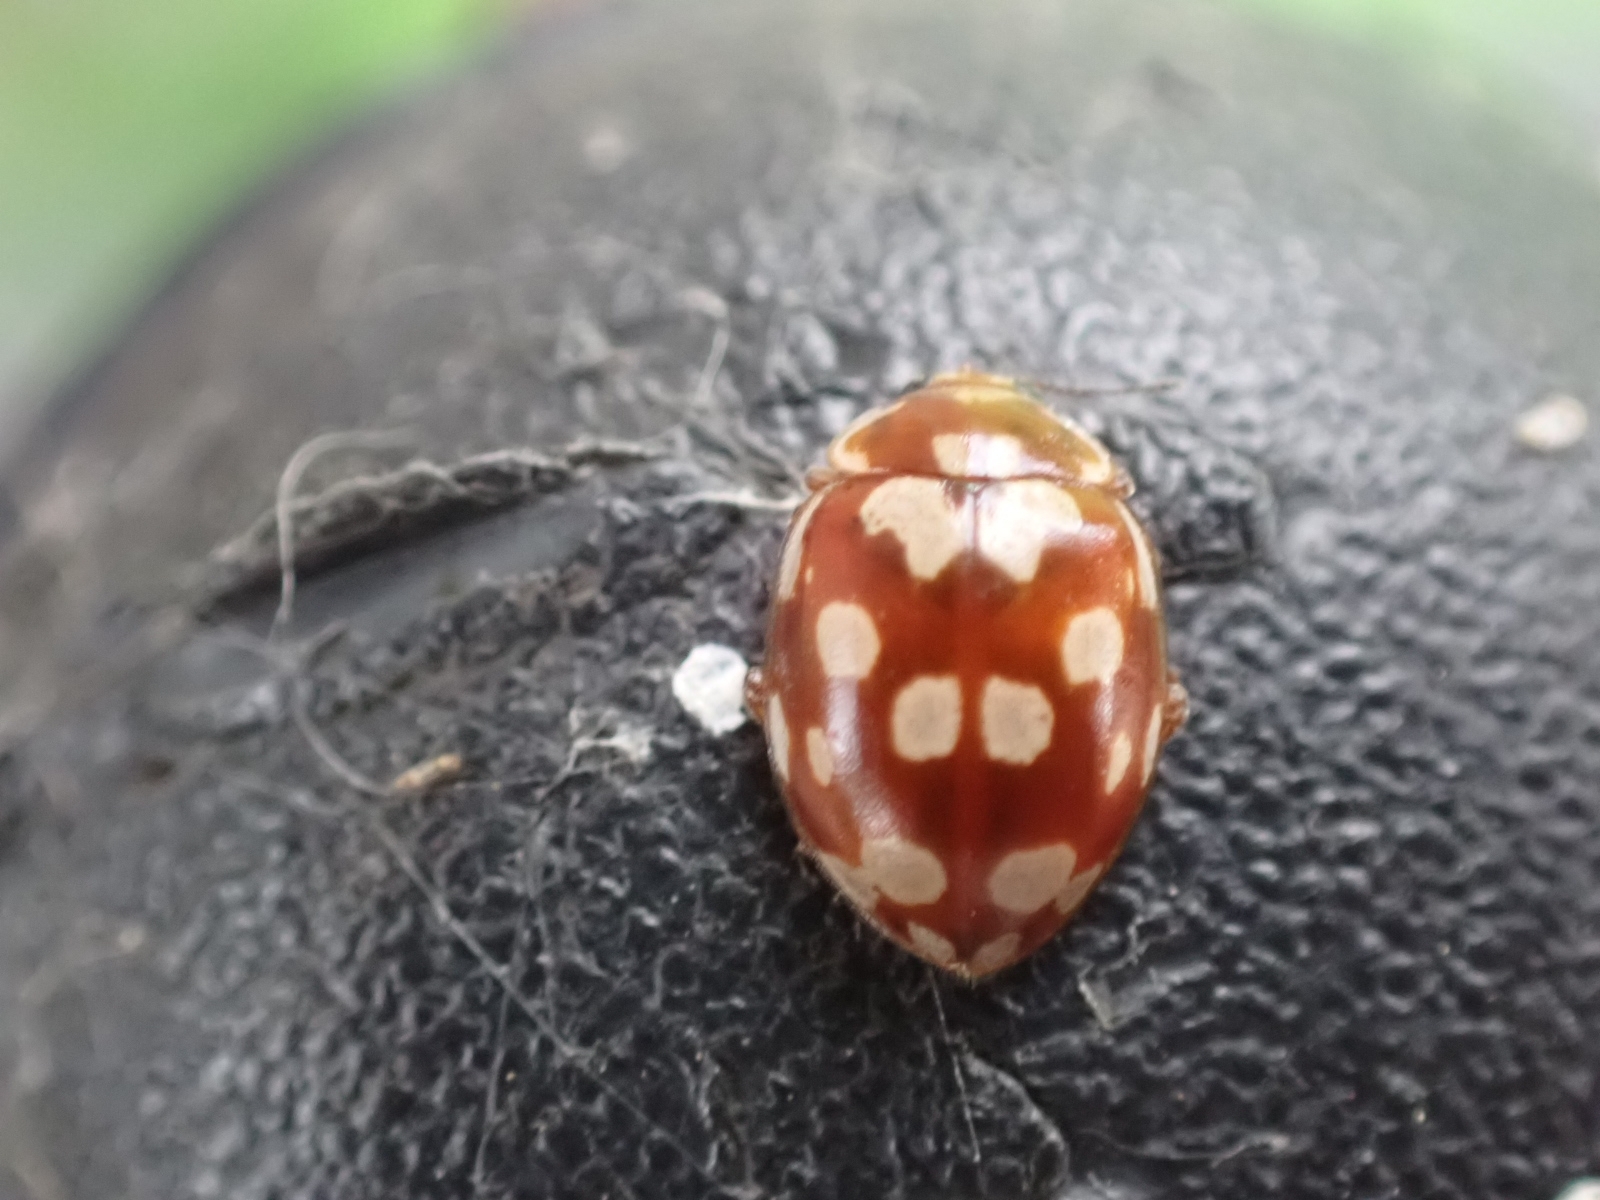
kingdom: Animalia
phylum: Arthropoda
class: Insecta
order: Coleoptera
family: Coccinellidae
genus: Myrrha
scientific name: Myrrha octodecimguttata
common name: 18-spot ladybird
